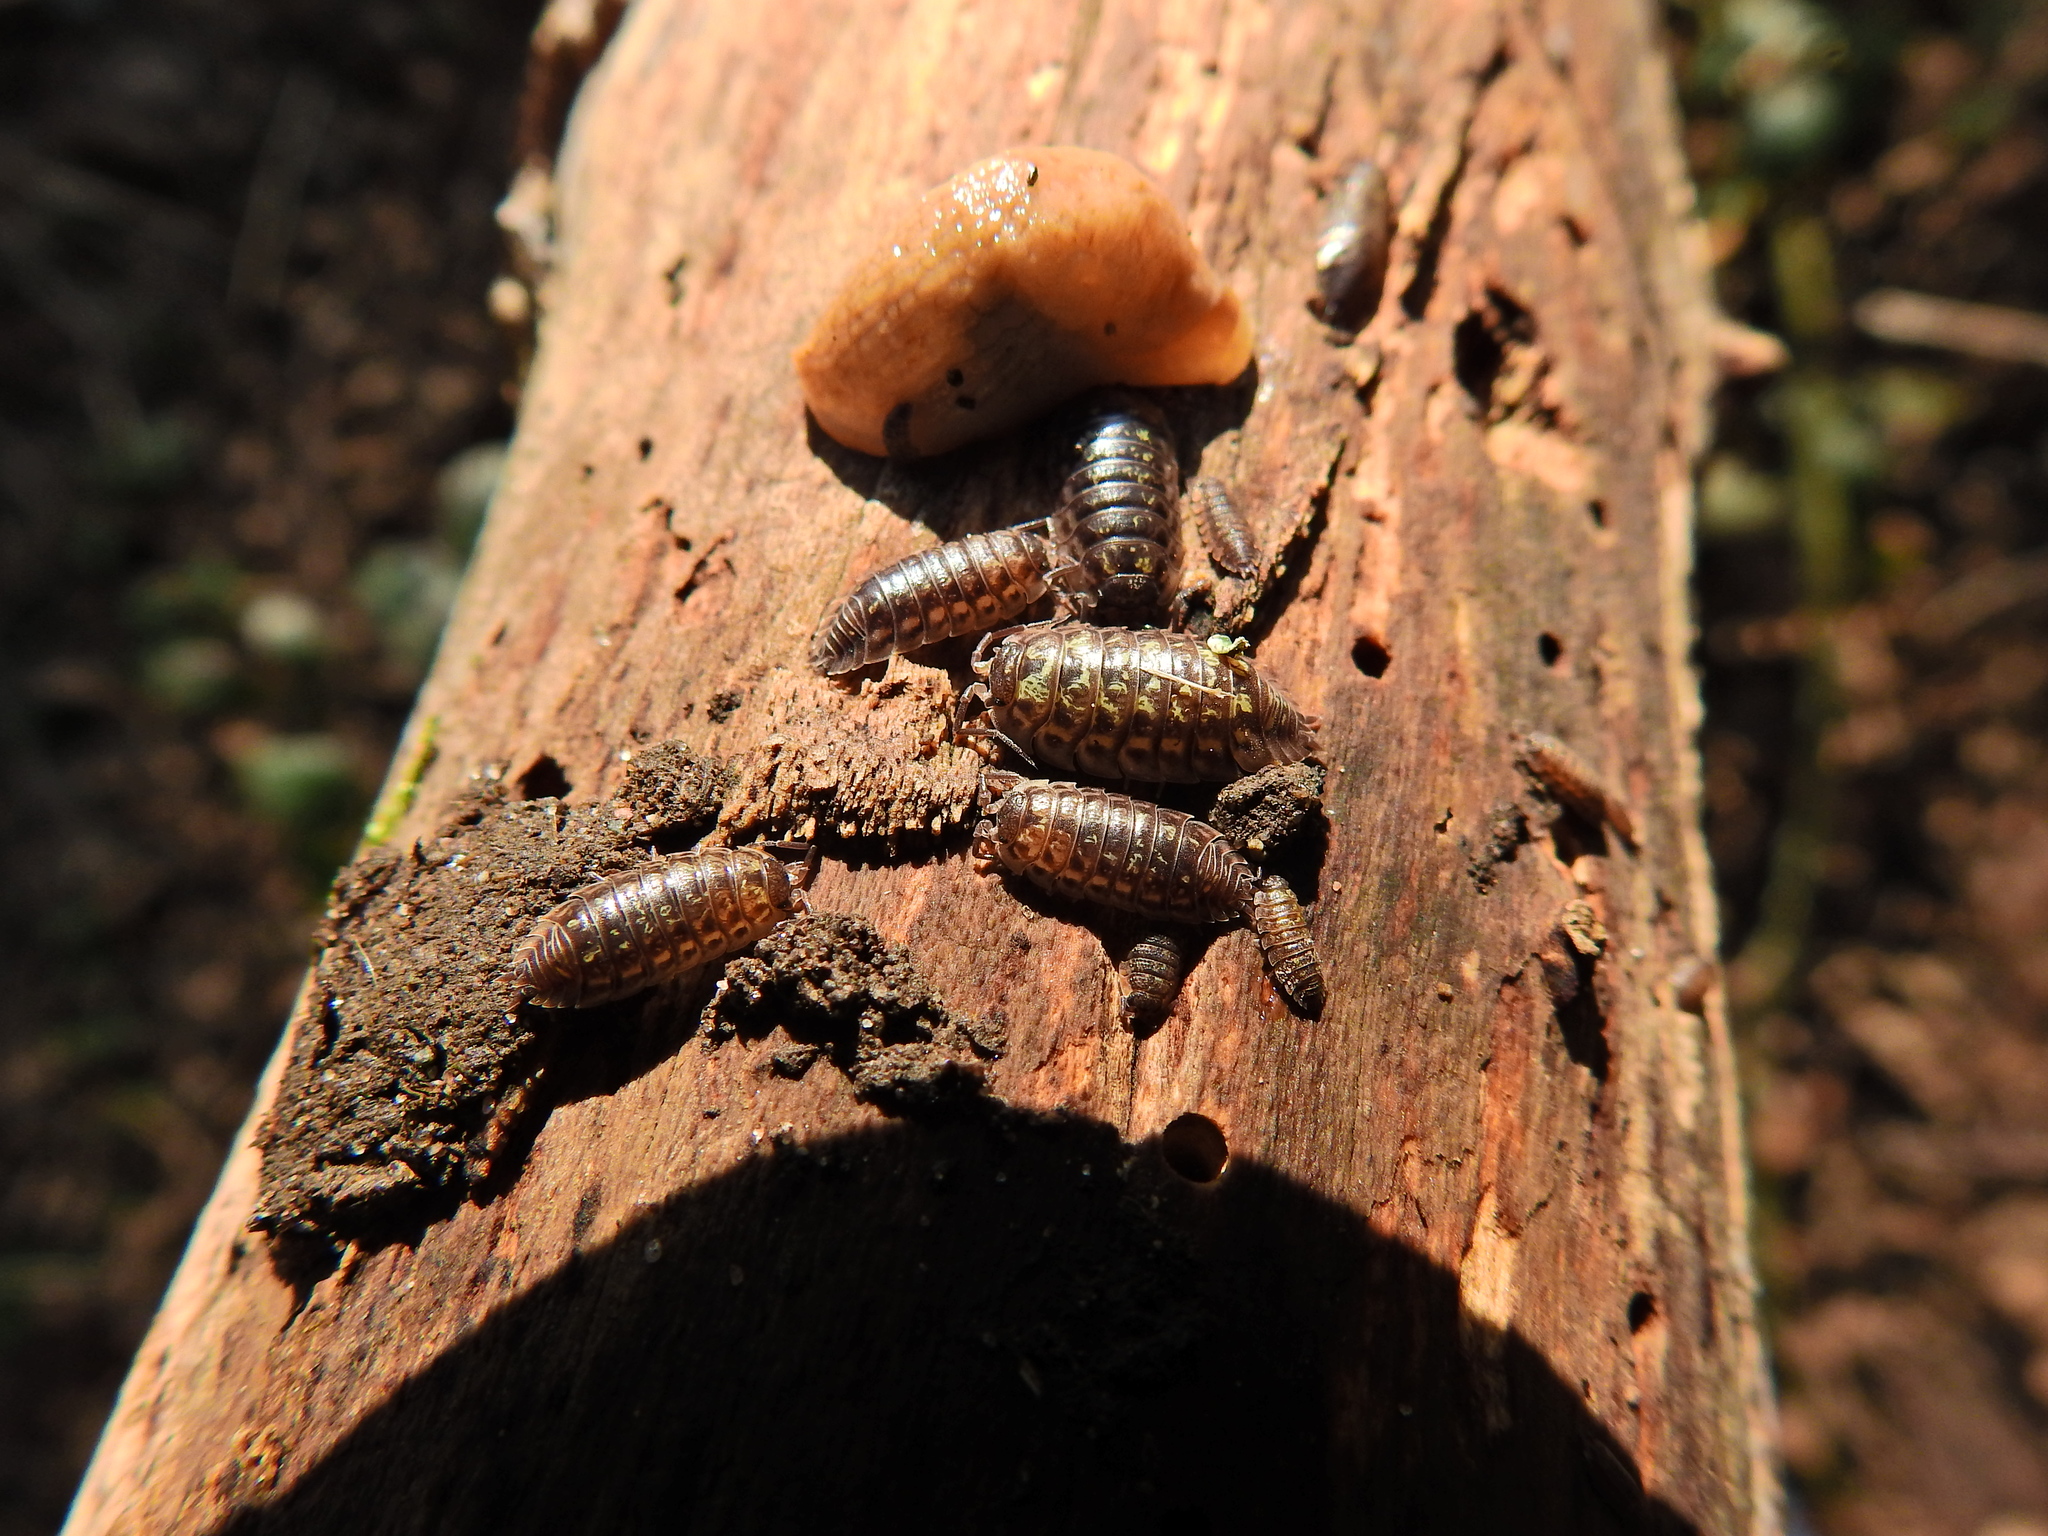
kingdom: Animalia
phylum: Arthropoda
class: Malacostraca
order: Isopoda
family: Oniscidae
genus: Oniscus
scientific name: Oniscus asellus
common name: Common shiny woodlouse
